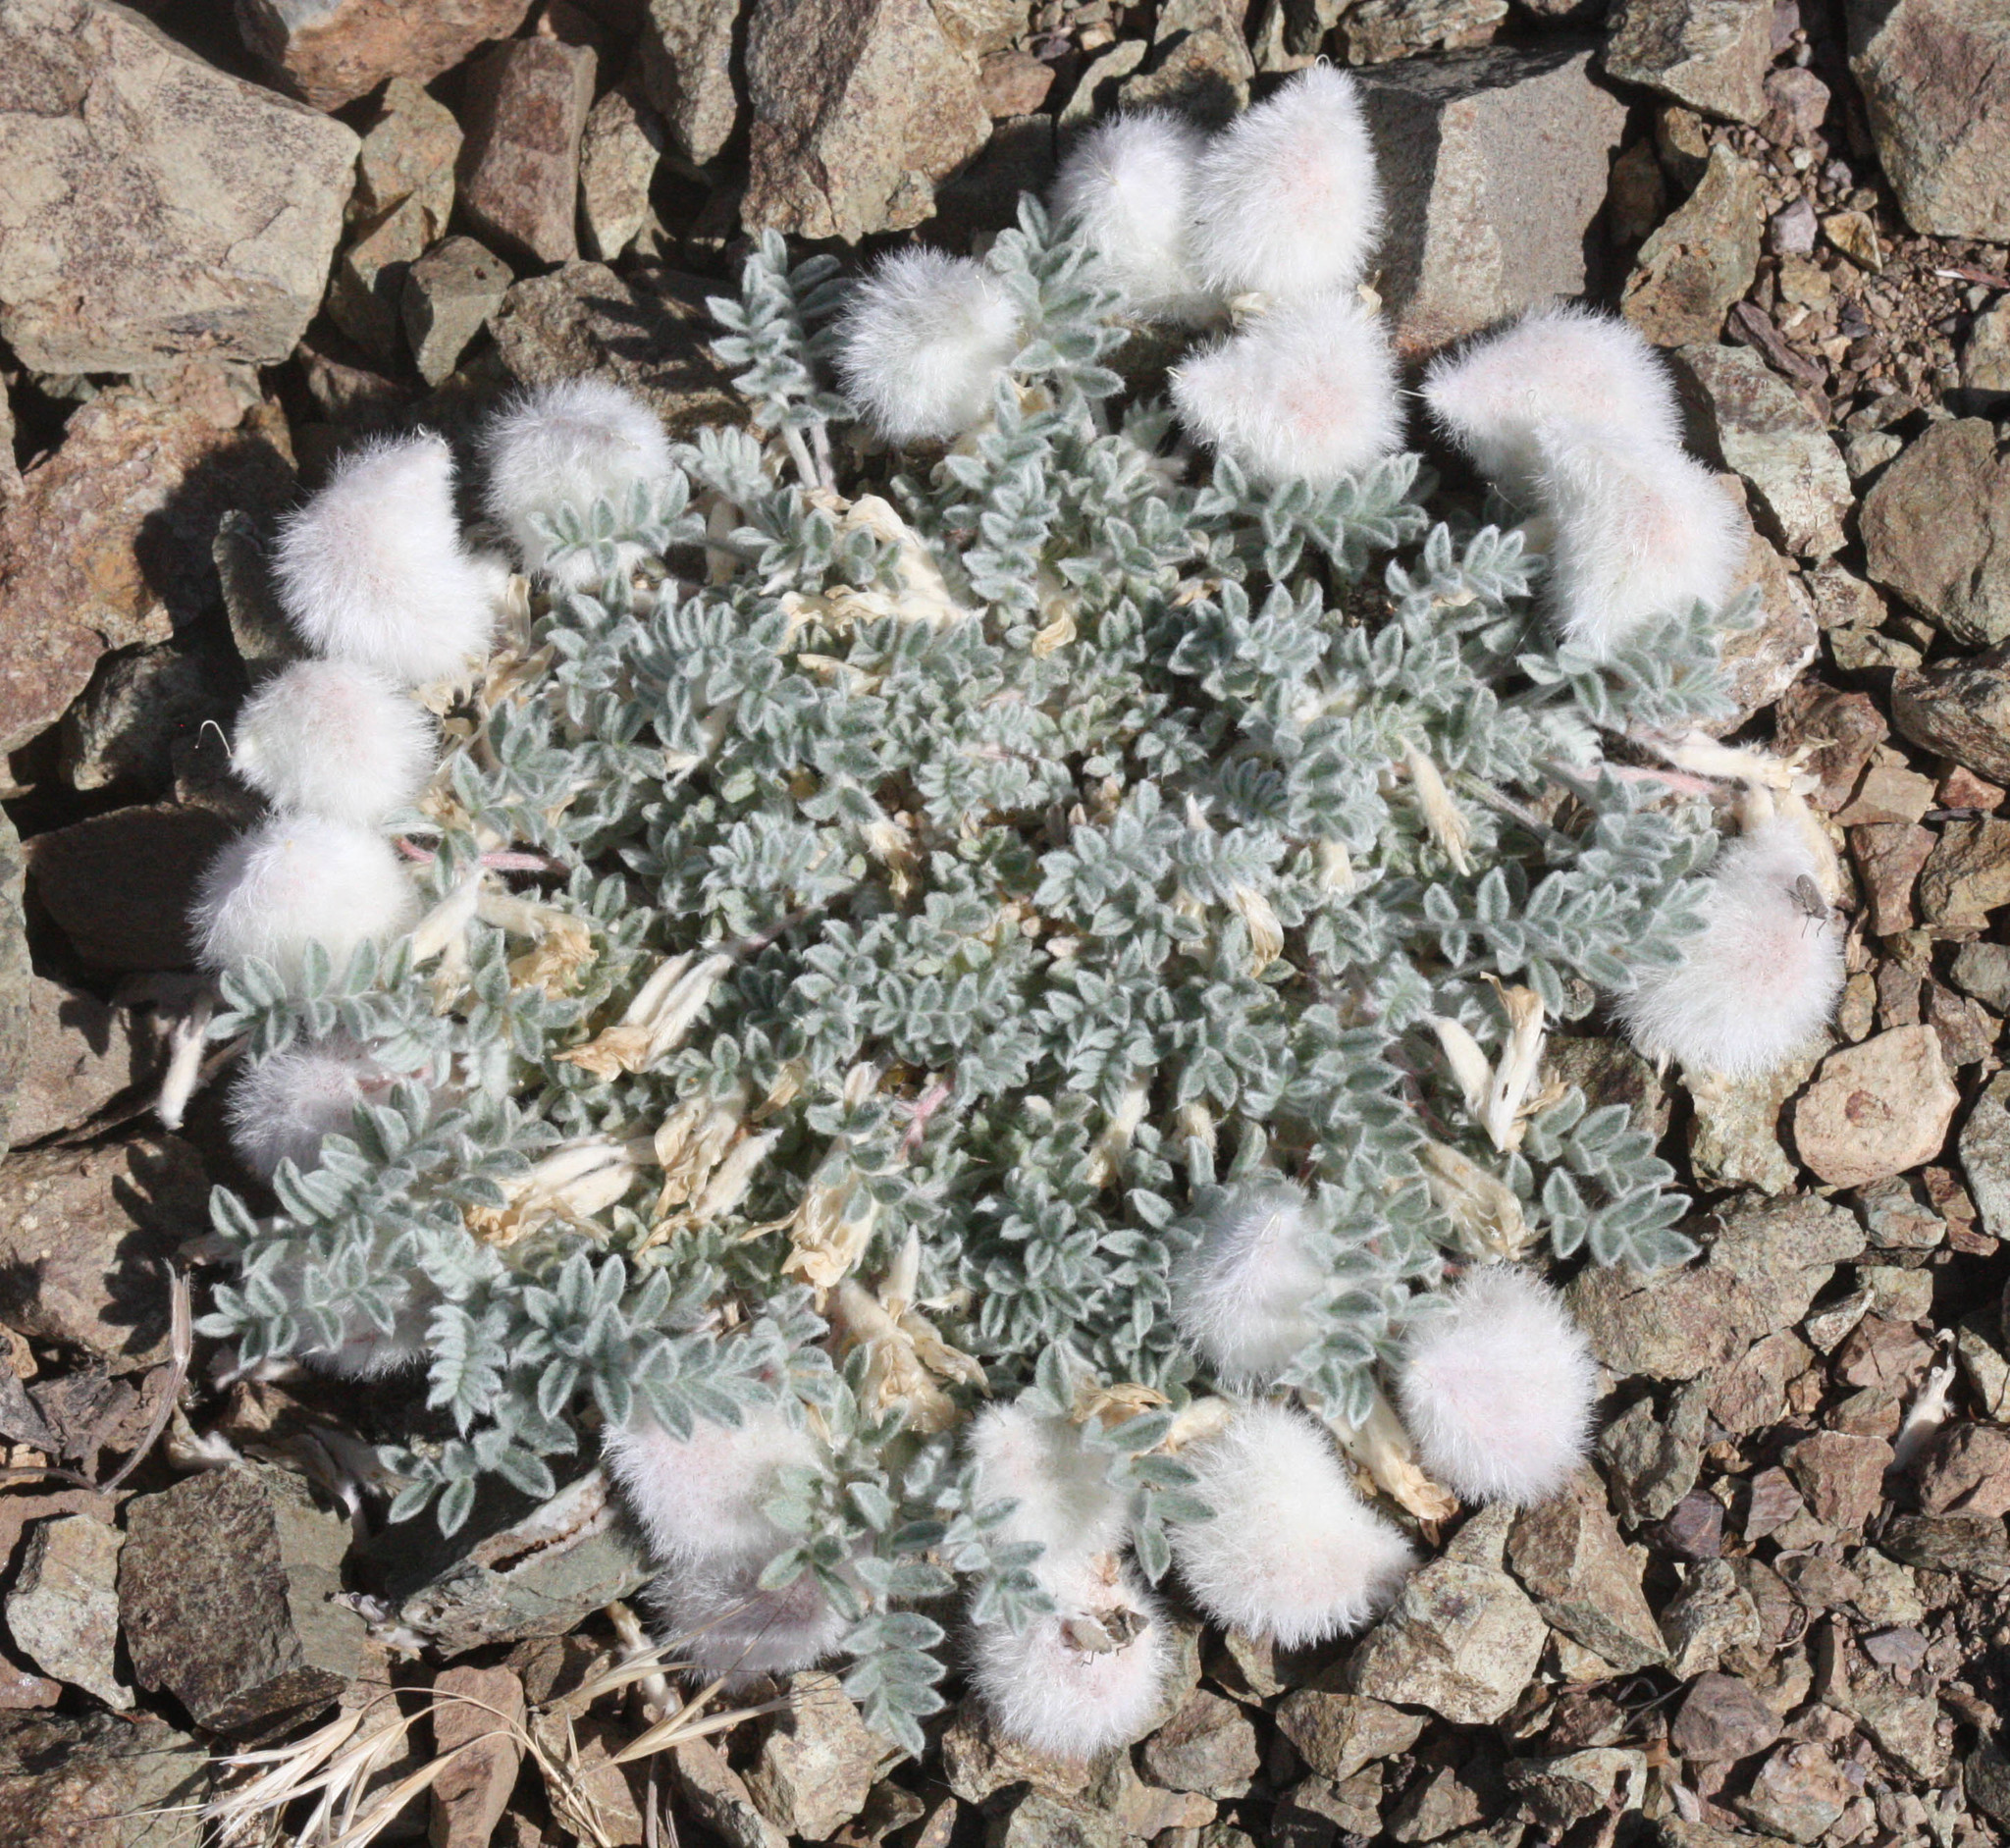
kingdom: Plantae
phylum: Tracheophyta
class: Magnoliopsida
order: Fabales
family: Fabaceae
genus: Astragalus
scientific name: Astragalus purshii
